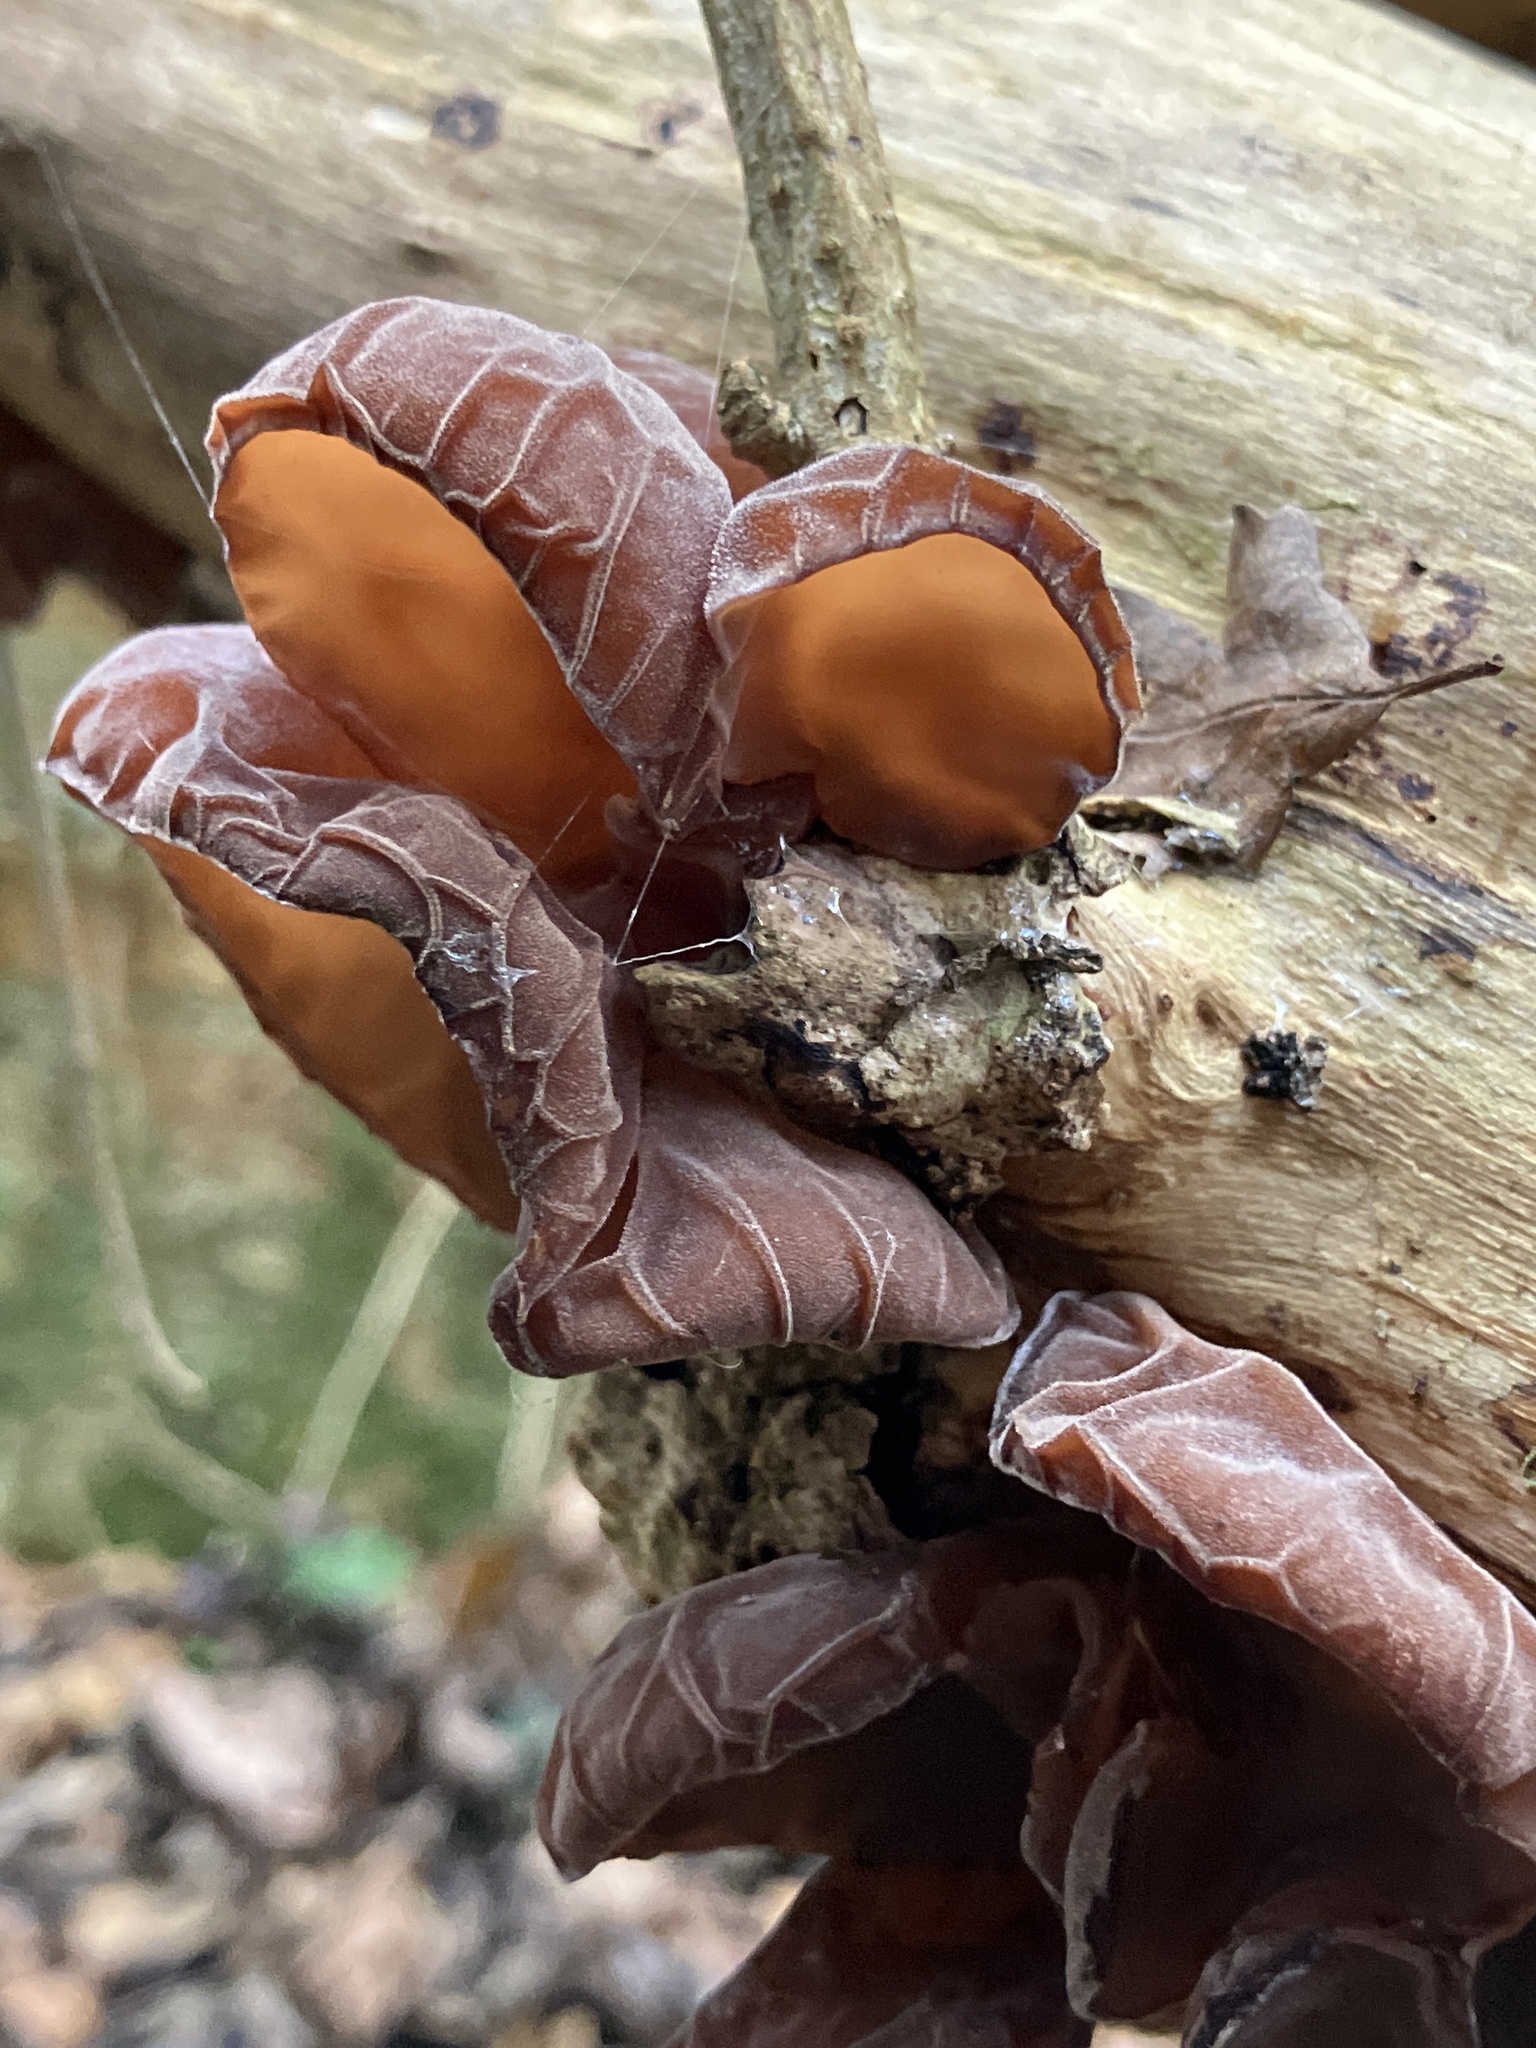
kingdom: Fungi
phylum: Basidiomycota
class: Agaricomycetes
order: Auriculariales
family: Auriculariaceae
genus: Auricularia
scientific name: Auricularia auricula-judae
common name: Jelly ear
